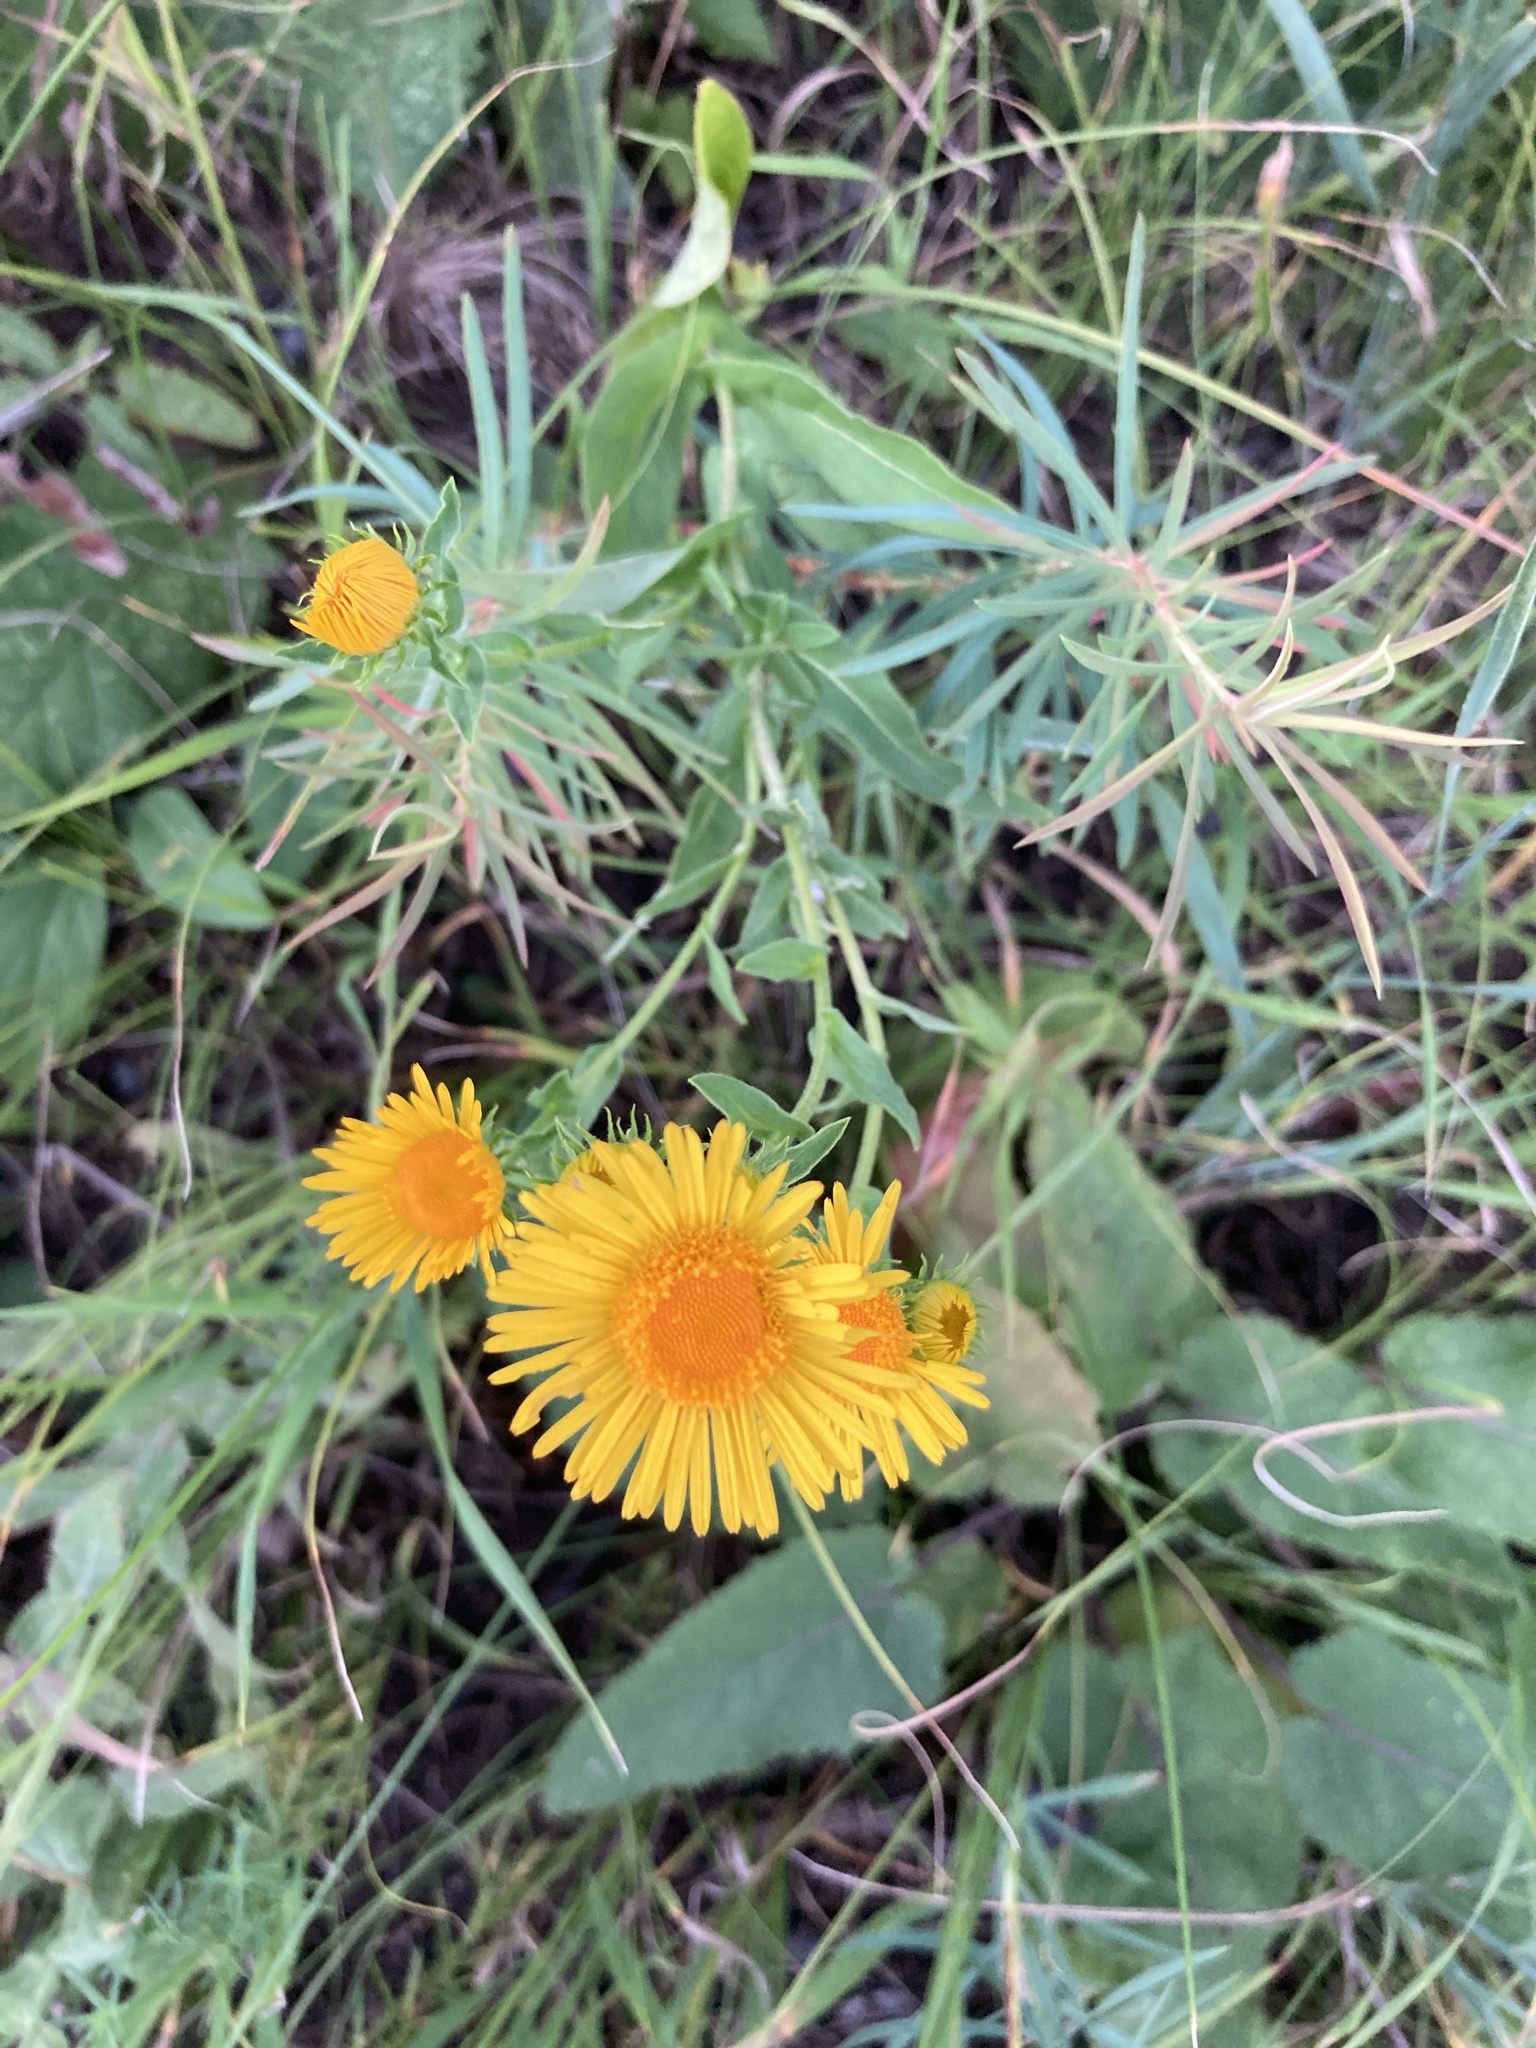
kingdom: Plantae
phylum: Tracheophyta
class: Magnoliopsida
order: Asterales
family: Asteraceae
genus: Pentanema
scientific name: Pentanema britannicum
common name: British elecampane
